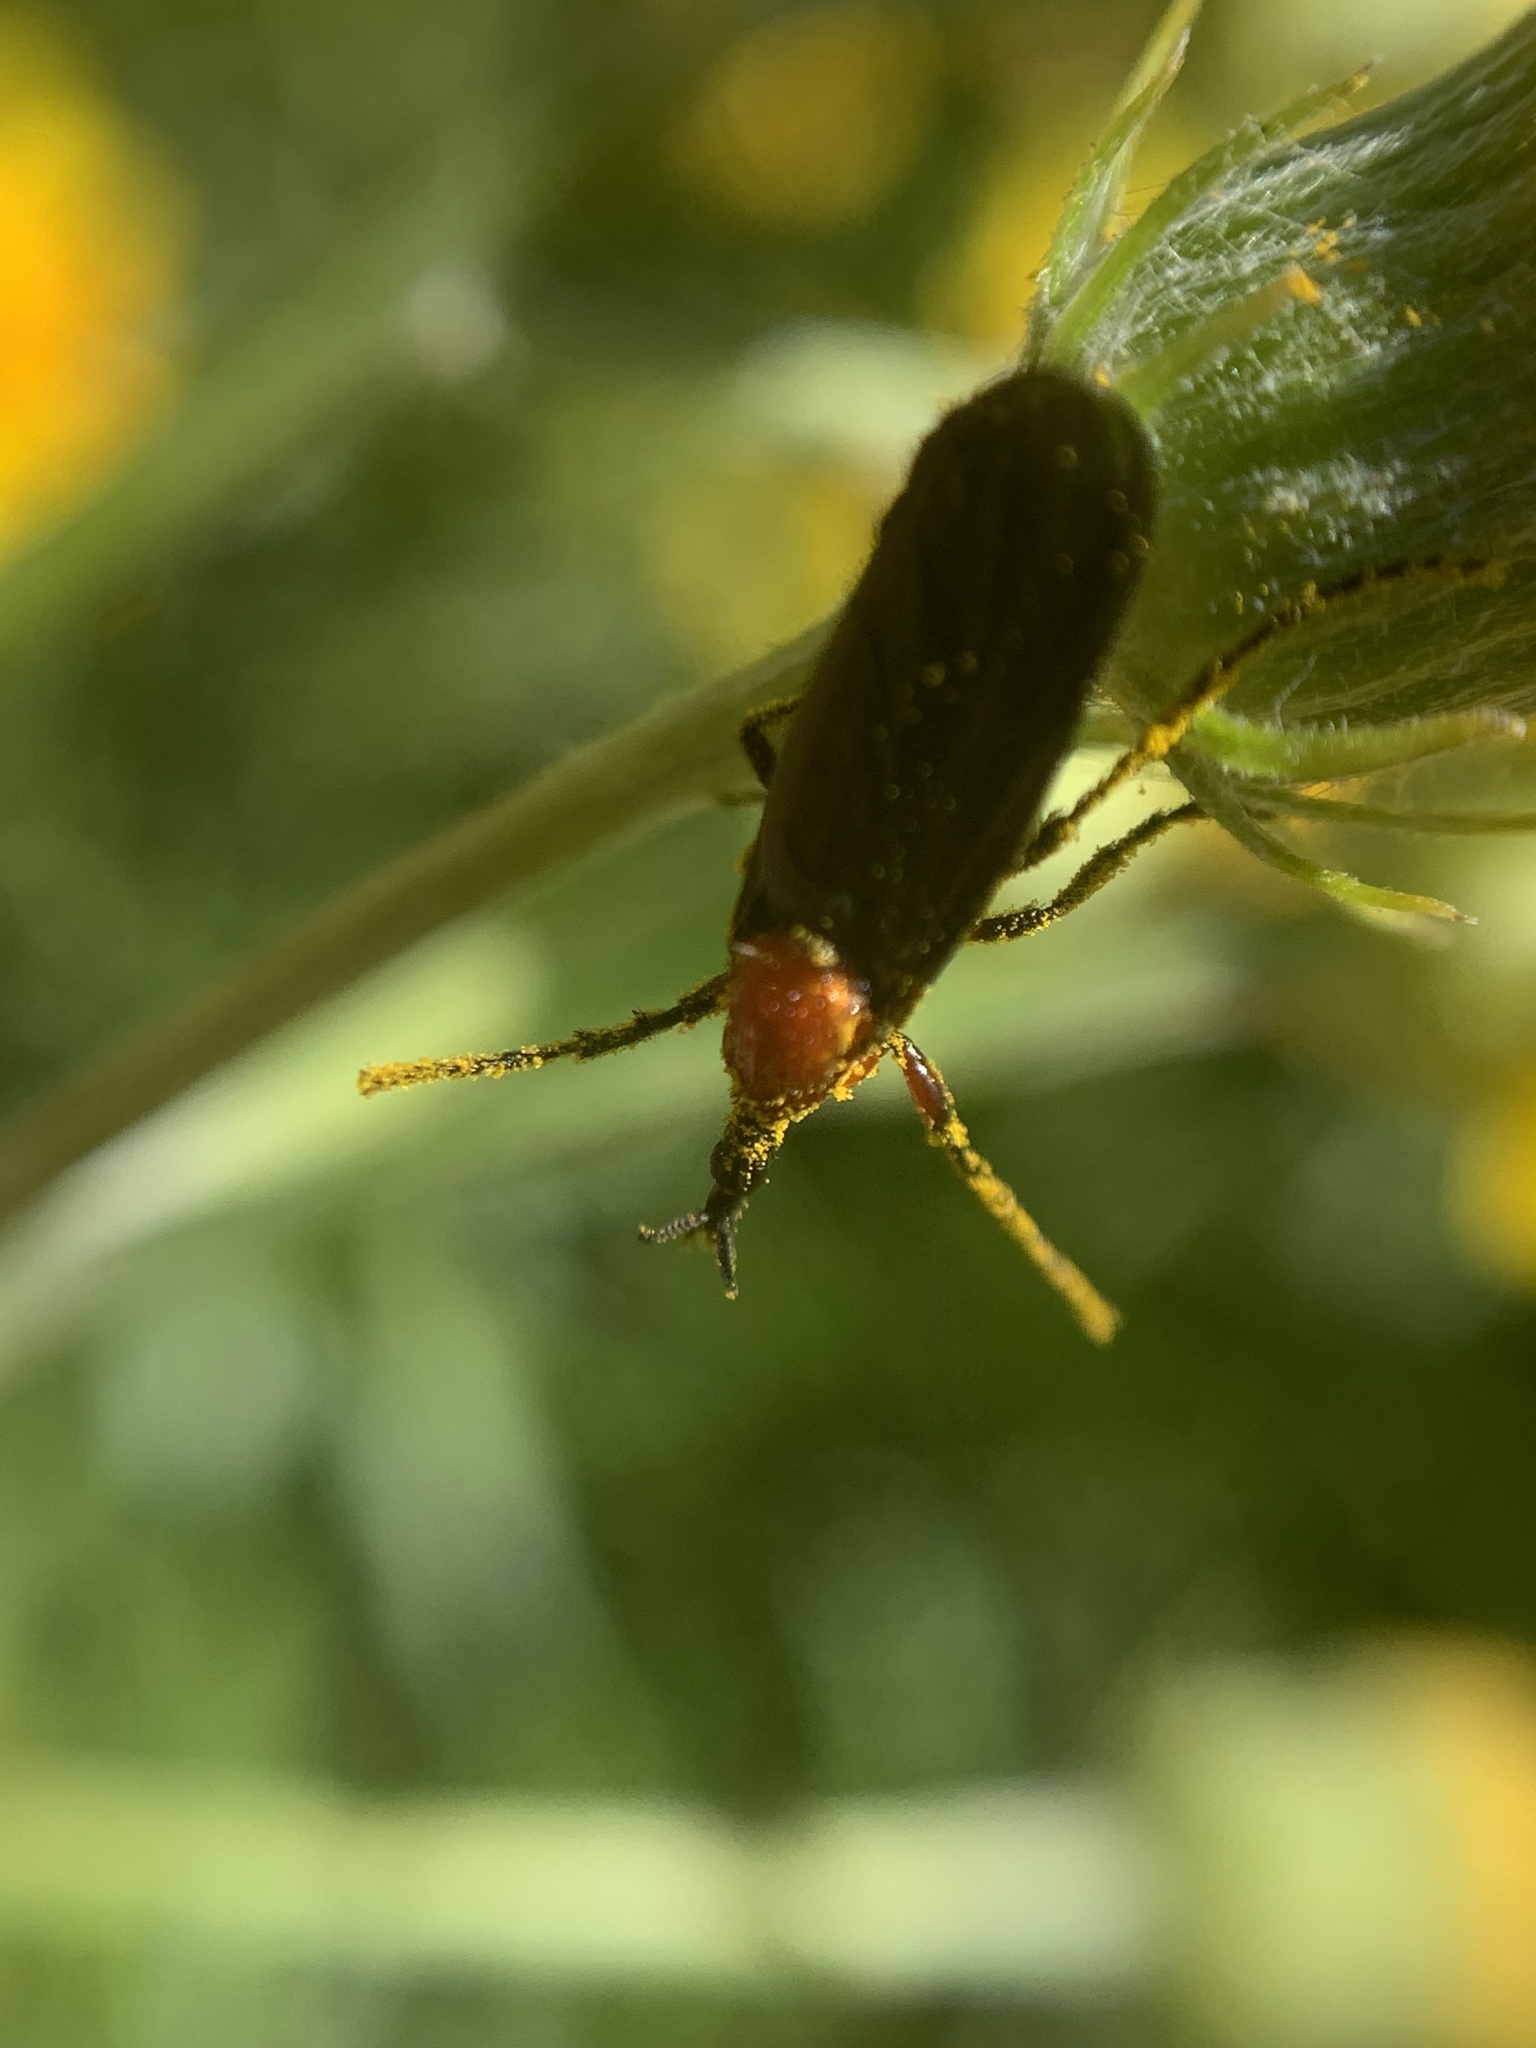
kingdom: Animalia
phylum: Arthropoda
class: Insecta
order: Diptera
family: Bibionidae
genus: Dilophus
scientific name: Dilophus pectoralis
